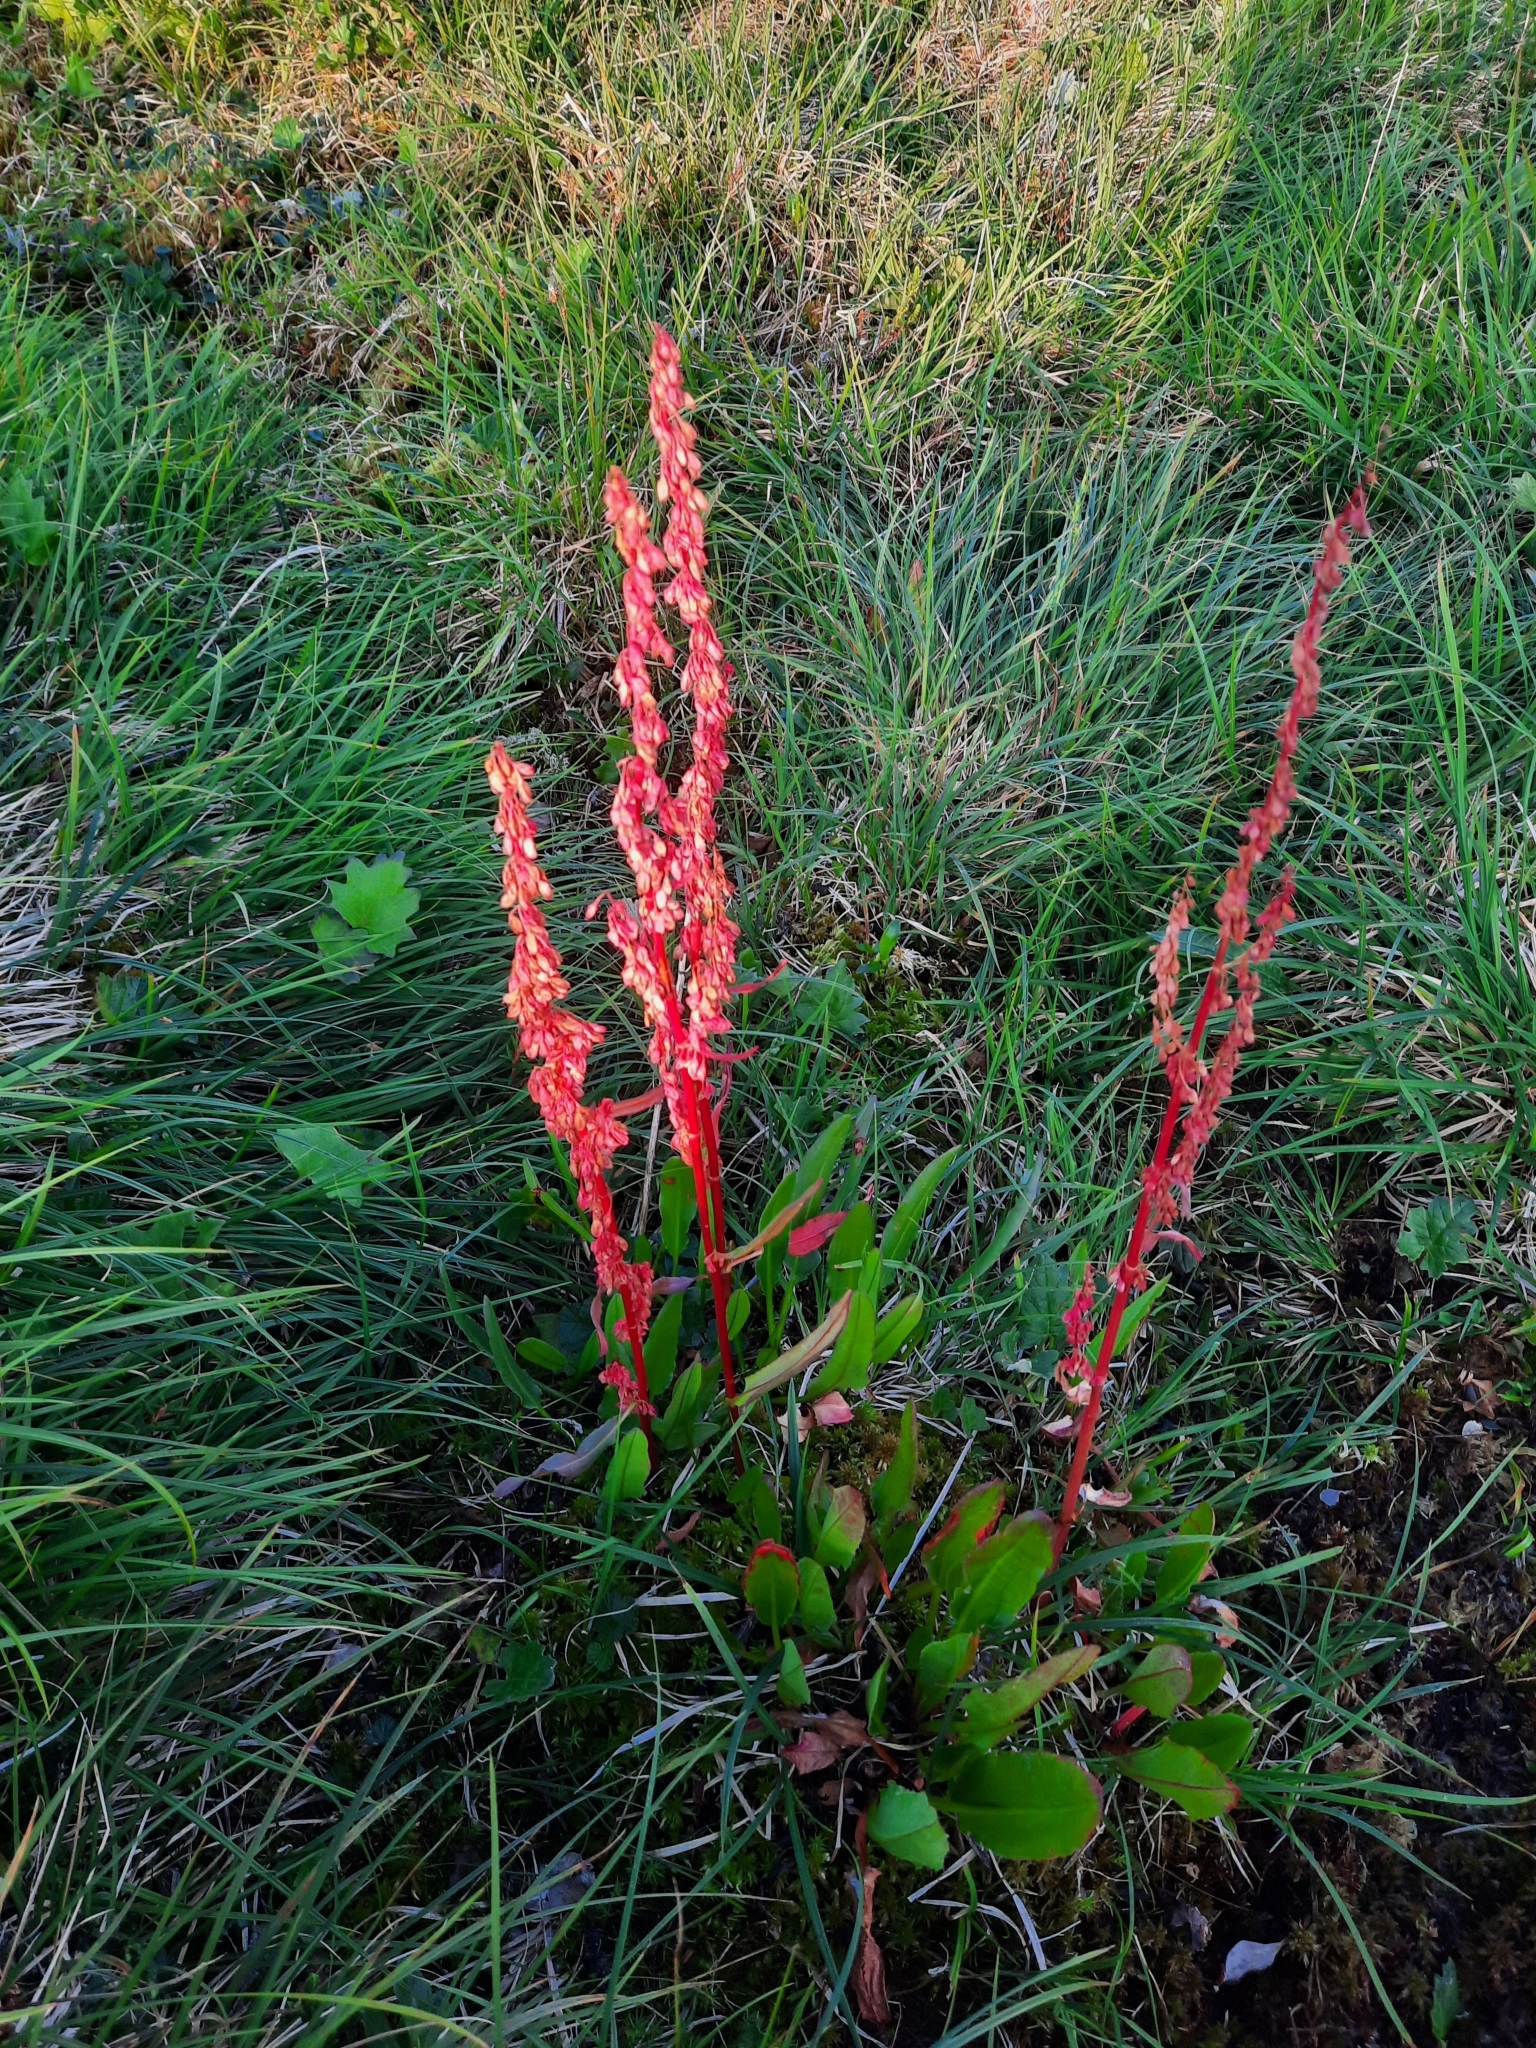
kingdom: Plantae
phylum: Tracheophyta
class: Magnoliopsida
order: Caryophyllales
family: Polygonaceae
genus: Rumex
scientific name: Rumex arcticus
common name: Arctic dock
